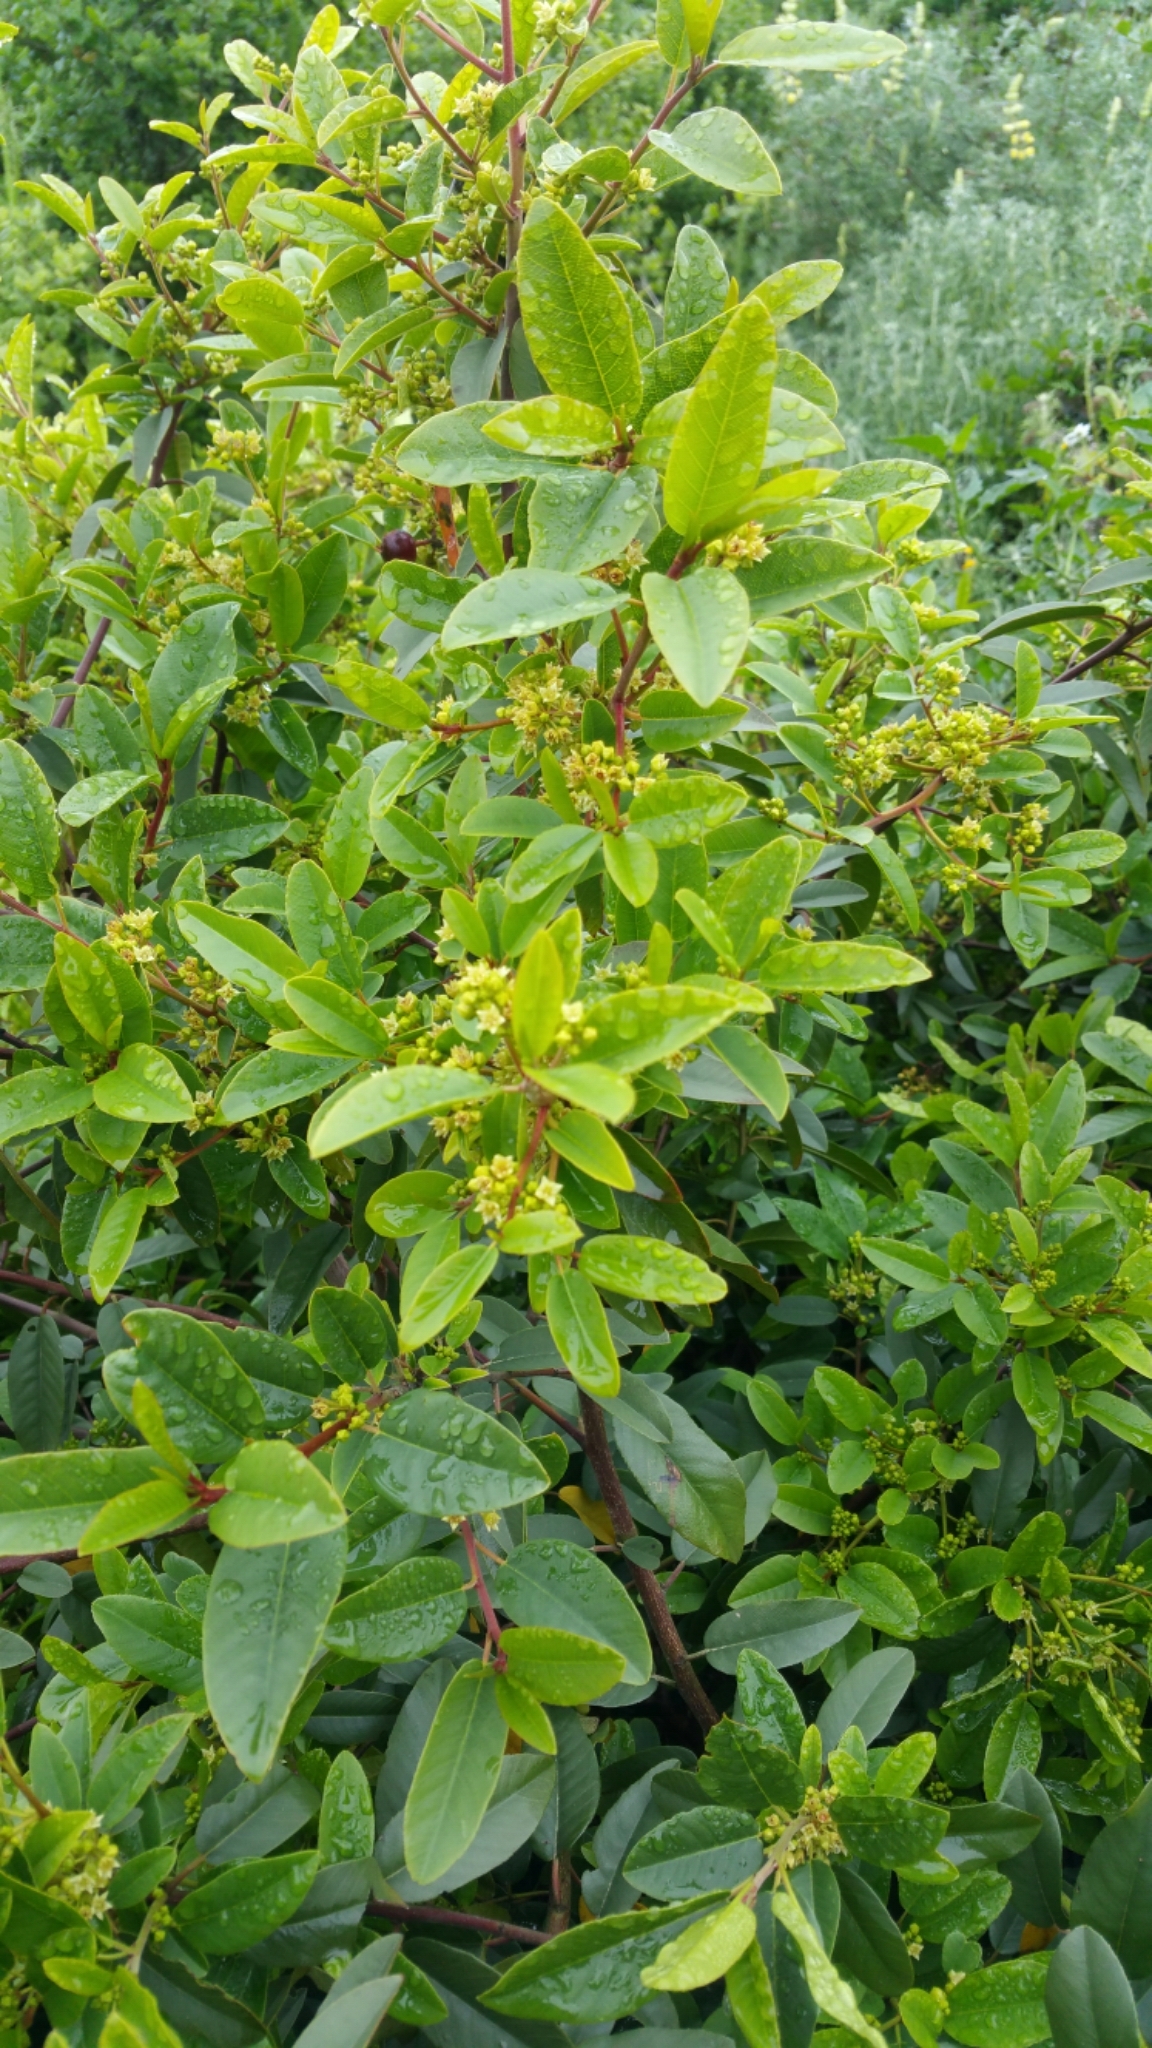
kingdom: Plantae
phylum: Tracheophyta
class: Magnoliopsida
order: Rosales
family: Rhamnaceae
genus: Frangula
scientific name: Frangula californica
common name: California buckthorn
